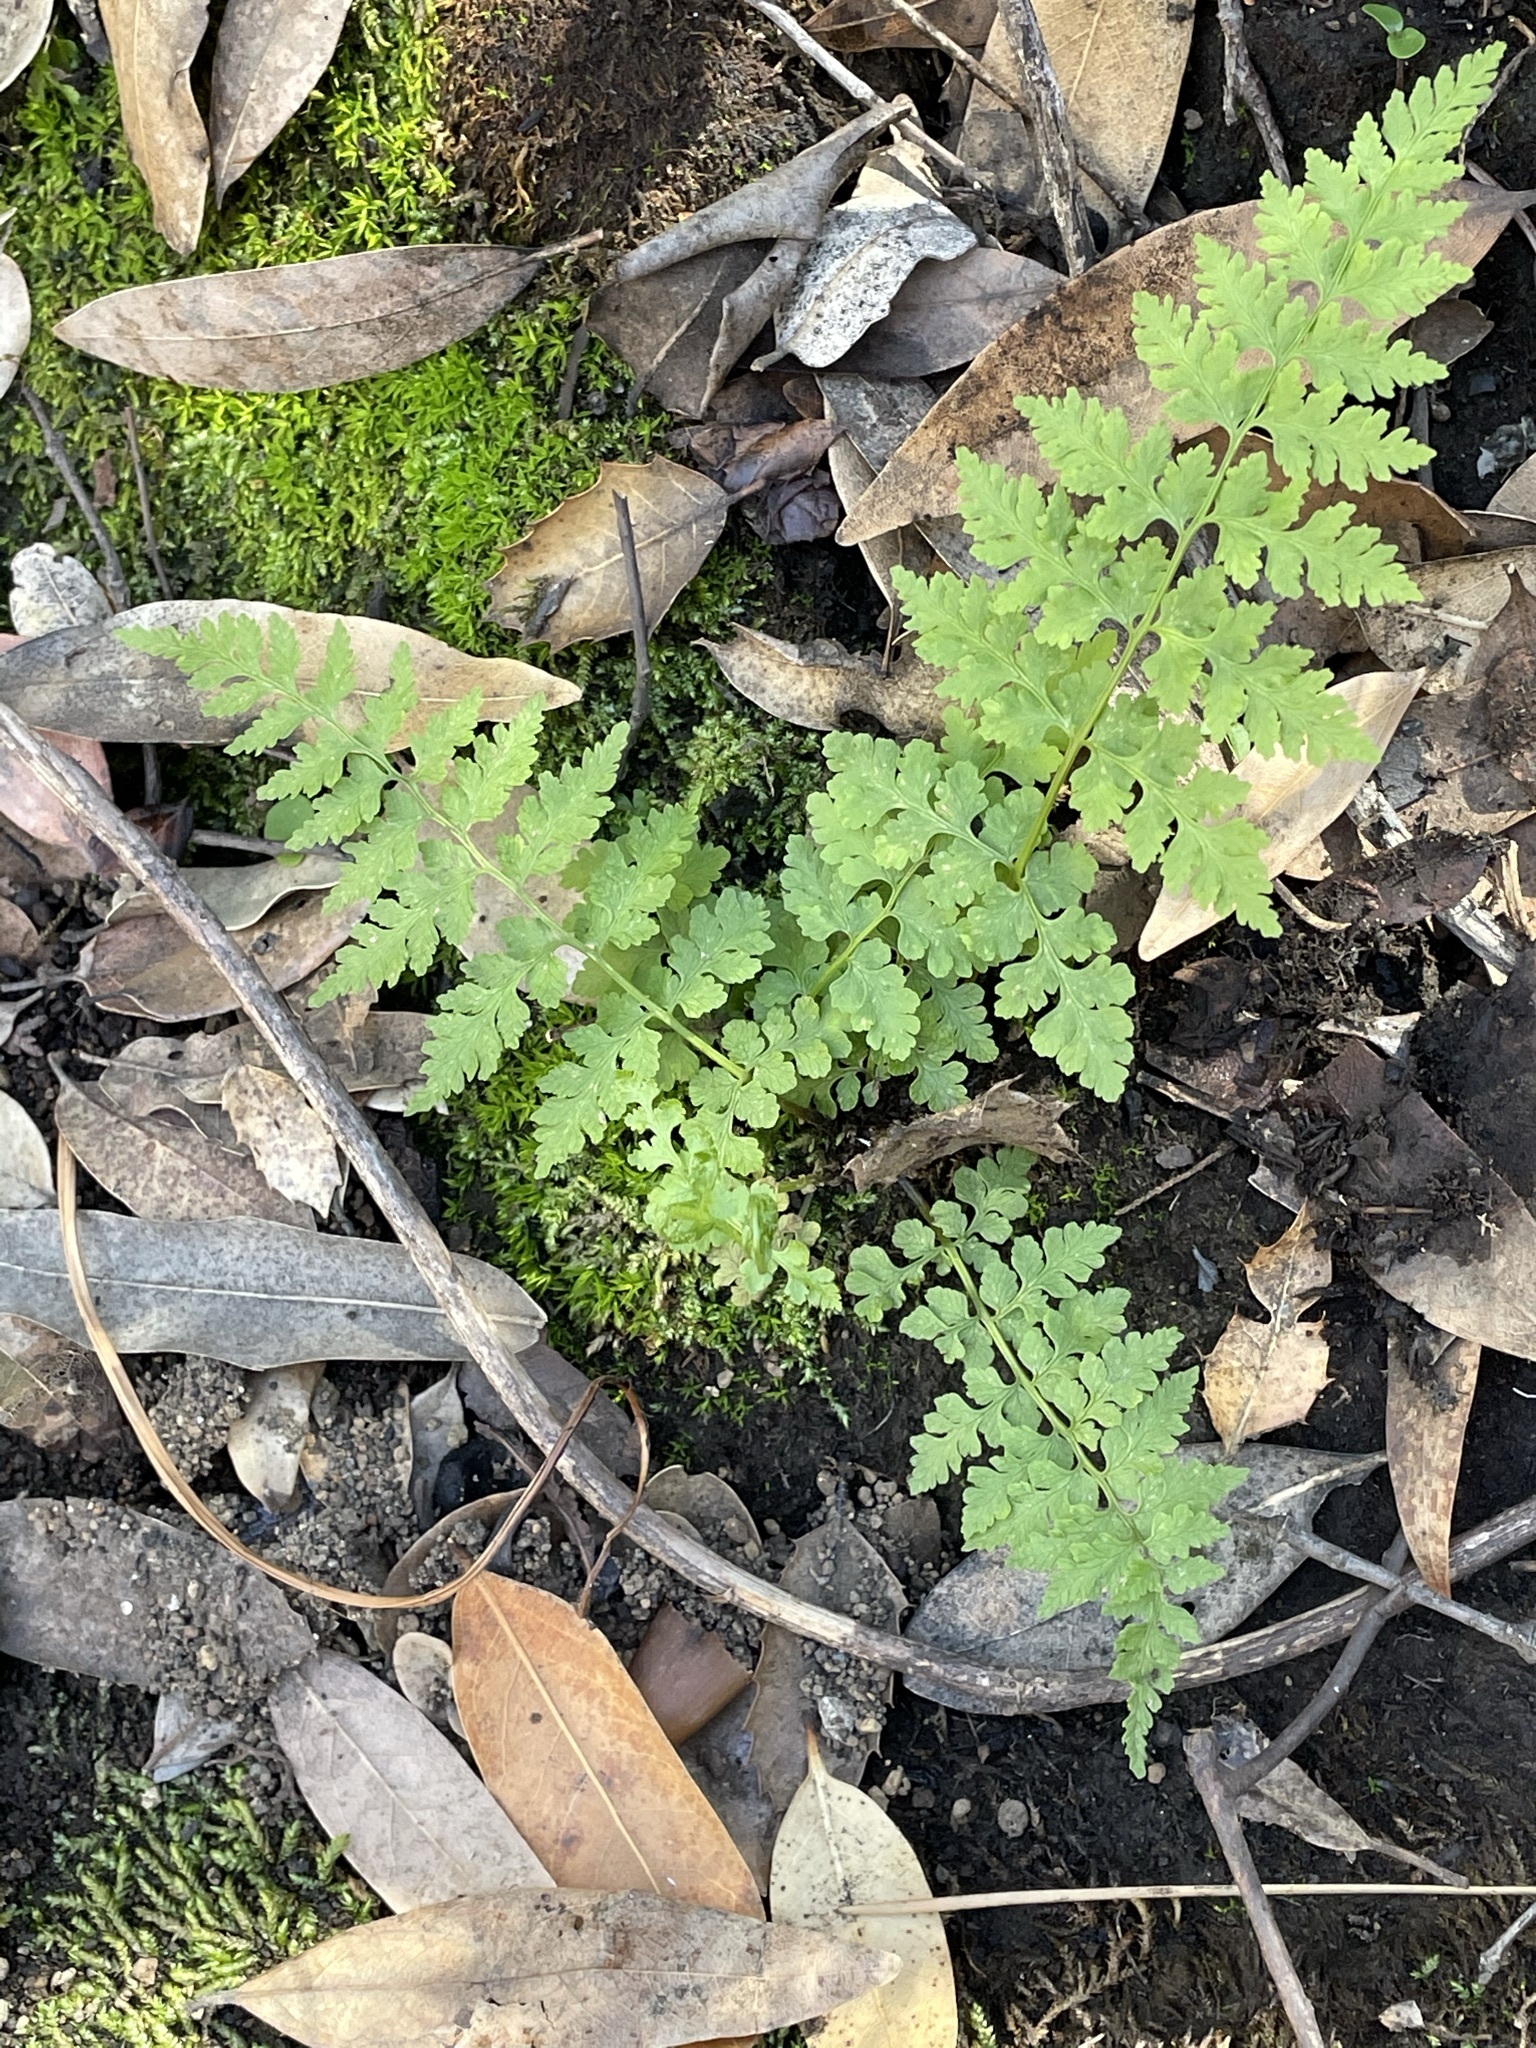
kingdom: Plantae
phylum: Tracheophyta
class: Polypodiopsida
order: Polypodiales
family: Cystopteridaceae
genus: Cystopteris
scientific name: Cystopteris fragilis
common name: Brittle bladder fern
